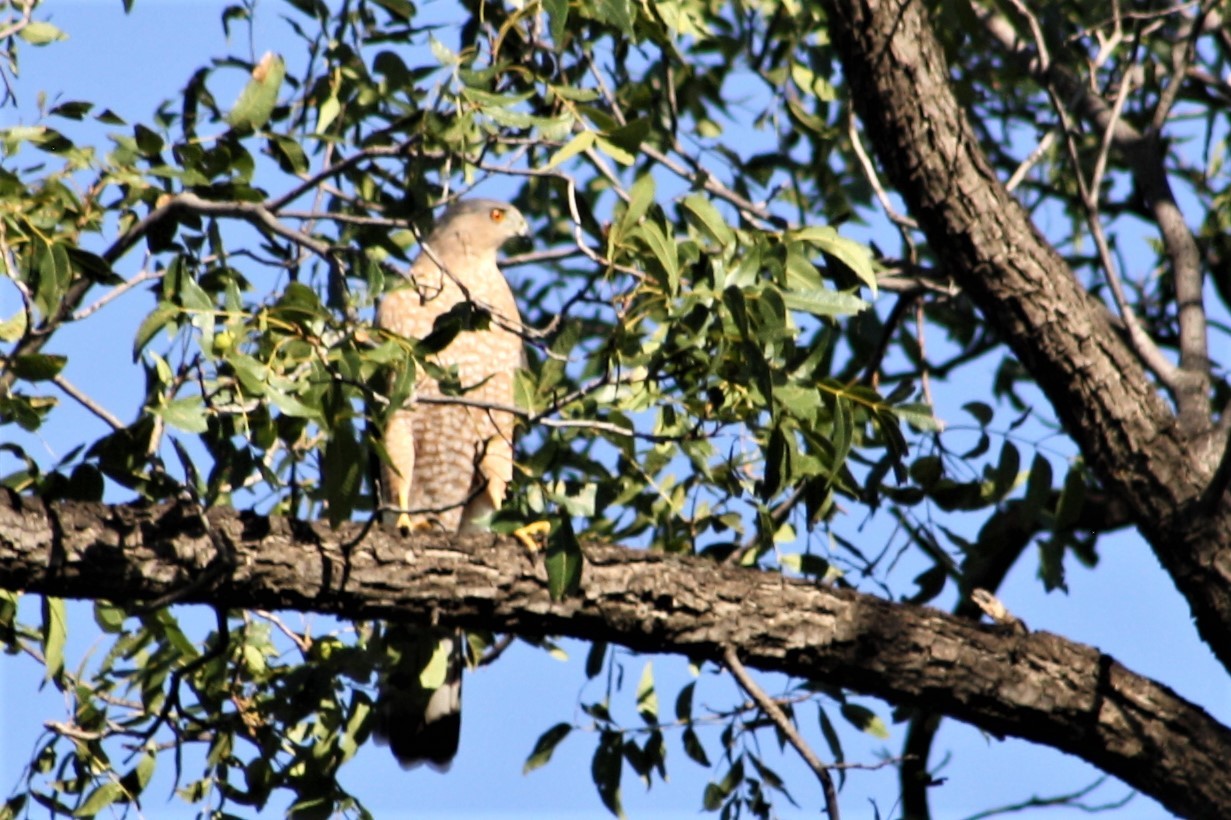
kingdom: Animalia
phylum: Chordata
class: Aves
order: Accipitriformes
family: Accipitridae
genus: Accipiter
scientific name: Accipiter cooperii
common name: Cooper's hawk
